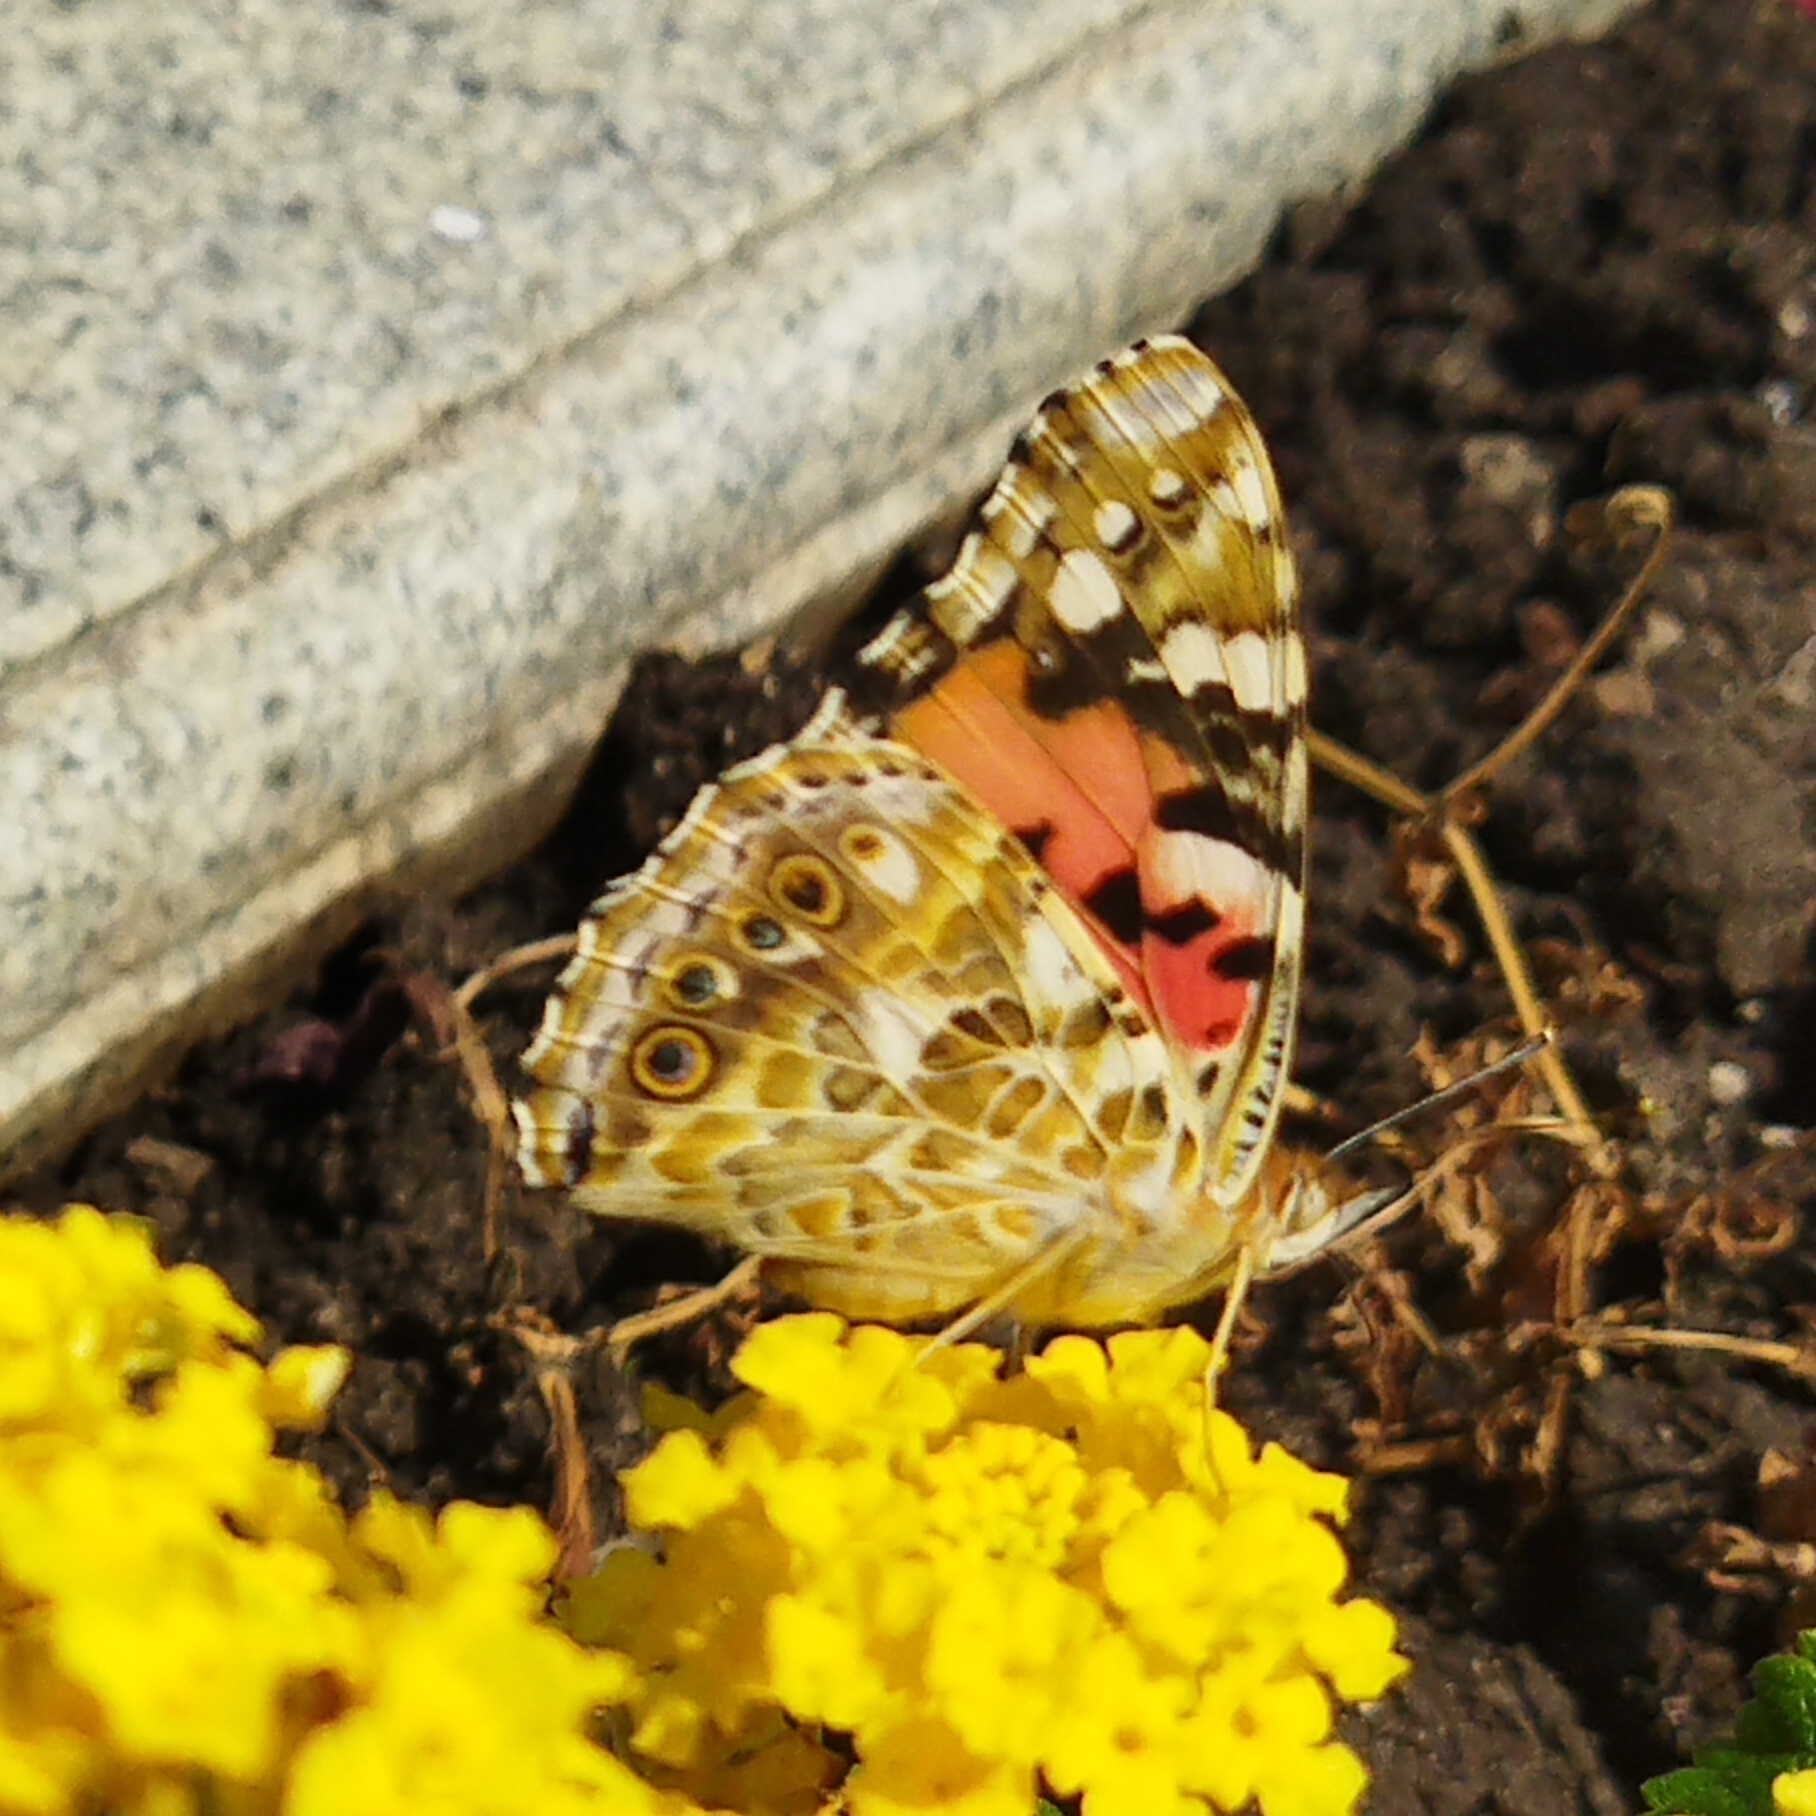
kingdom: Animalia
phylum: Arthropoda
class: Insecta
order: Lepidoptera
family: Nymphalidae
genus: Vanessa
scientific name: Vanessa cardui
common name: Painted lady
